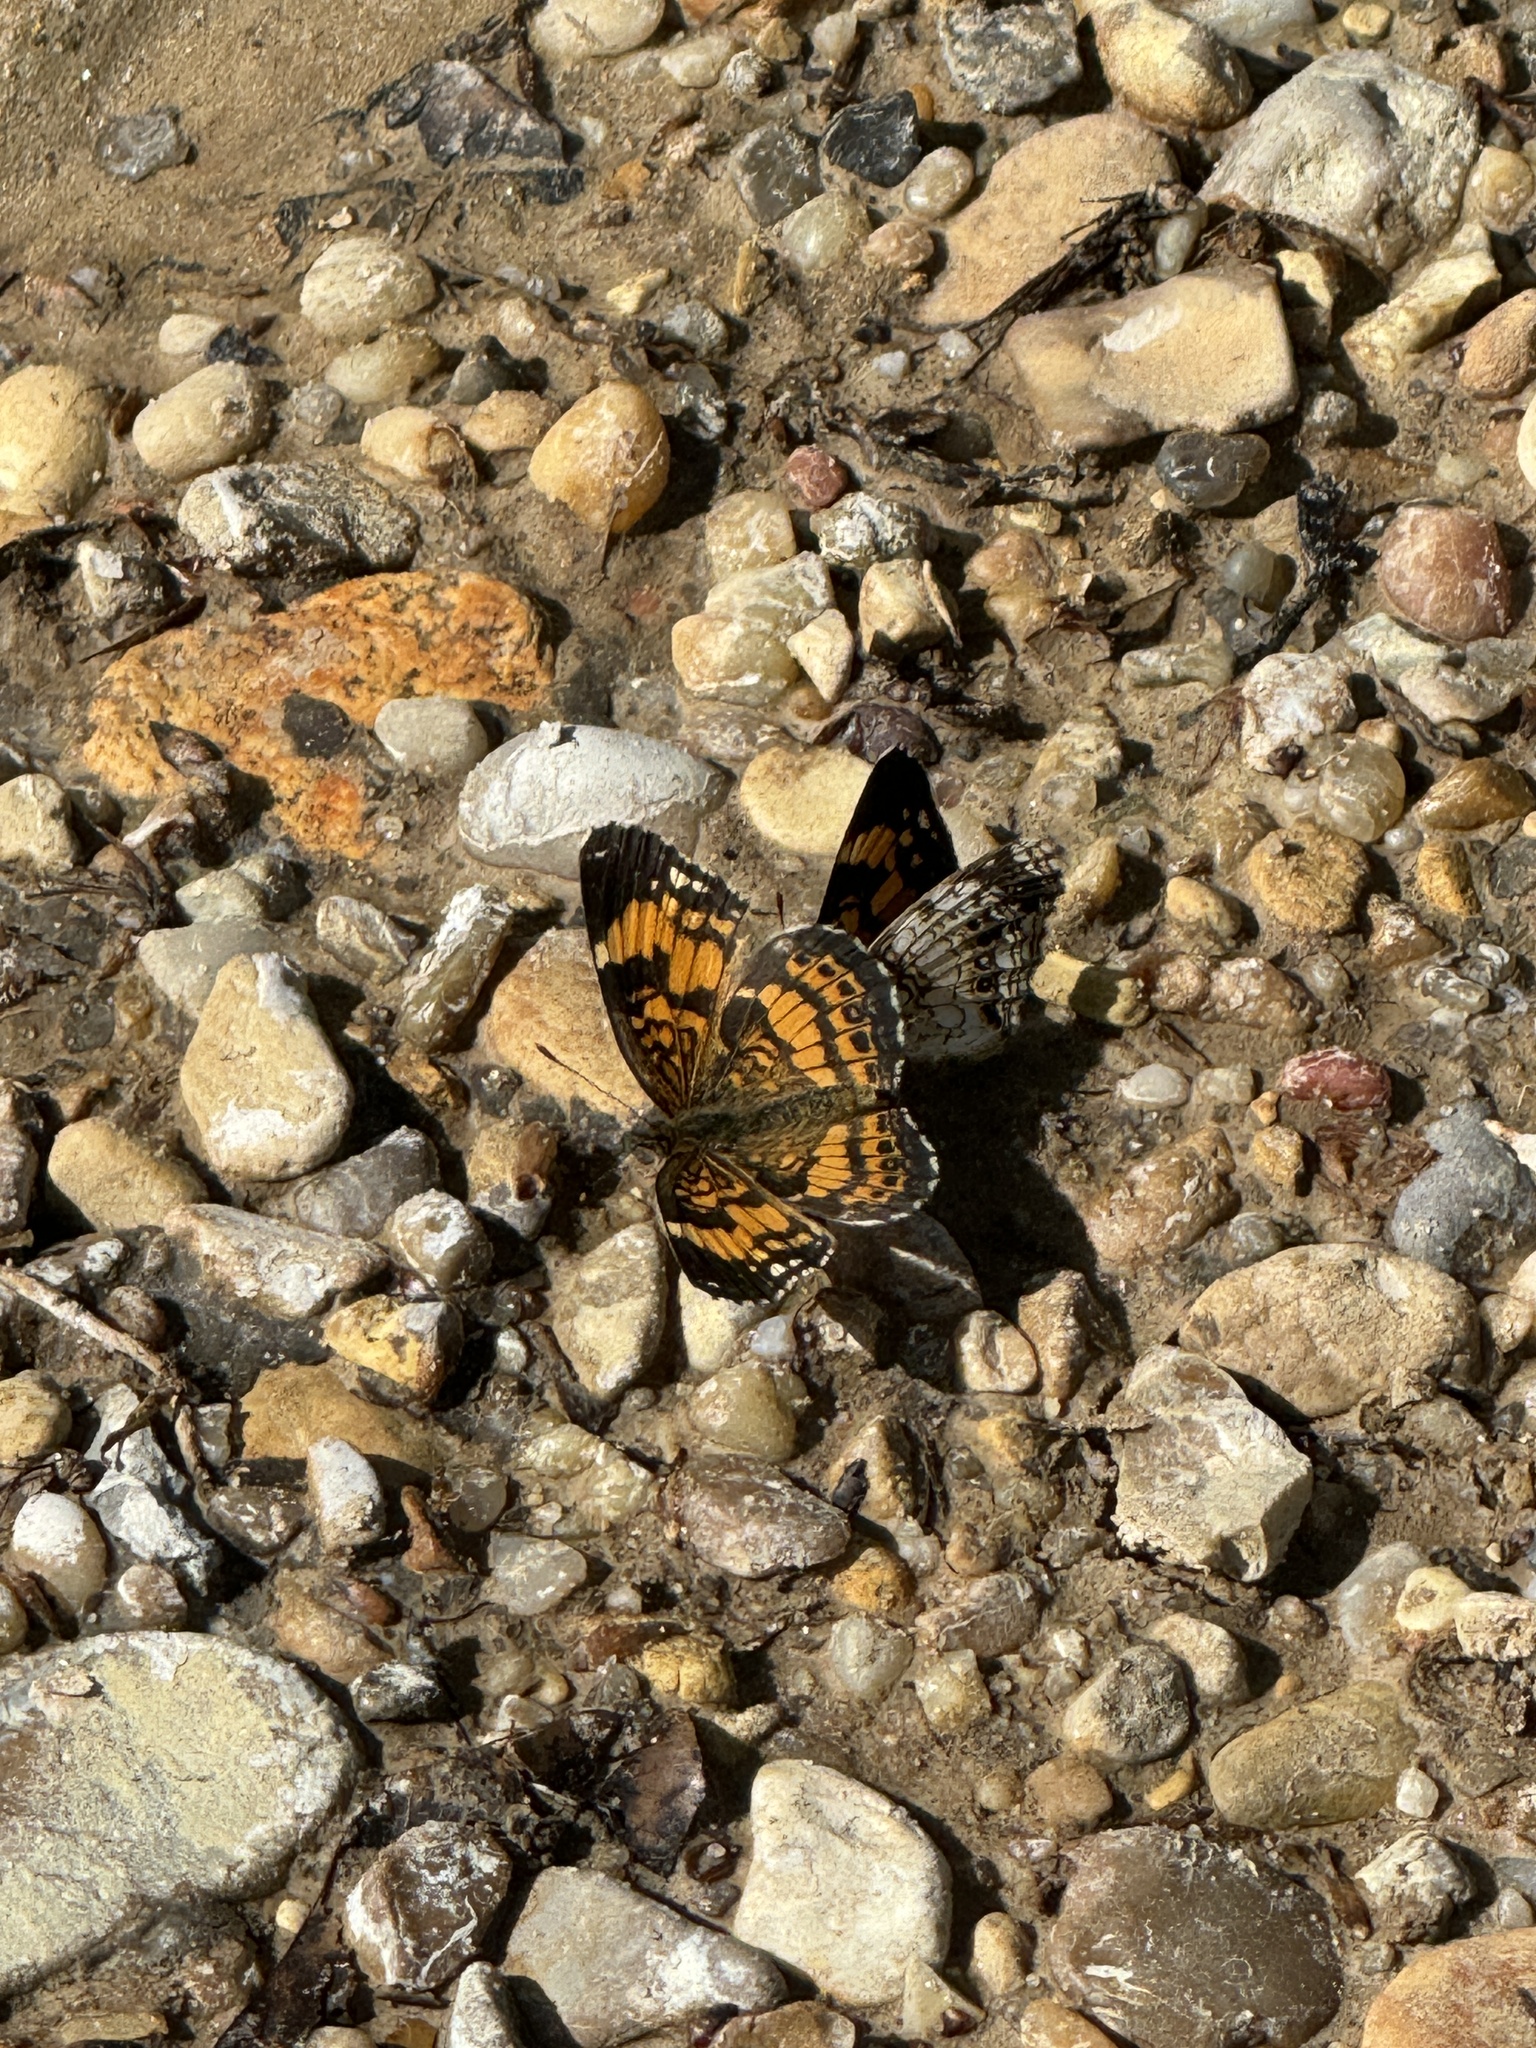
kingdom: Animalia
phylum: Arthropoda
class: Insecta
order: Lepidoptera
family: Nymphalidae
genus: Chlosyne
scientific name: Chlosyne nycteis
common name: Silvery checkerspot
